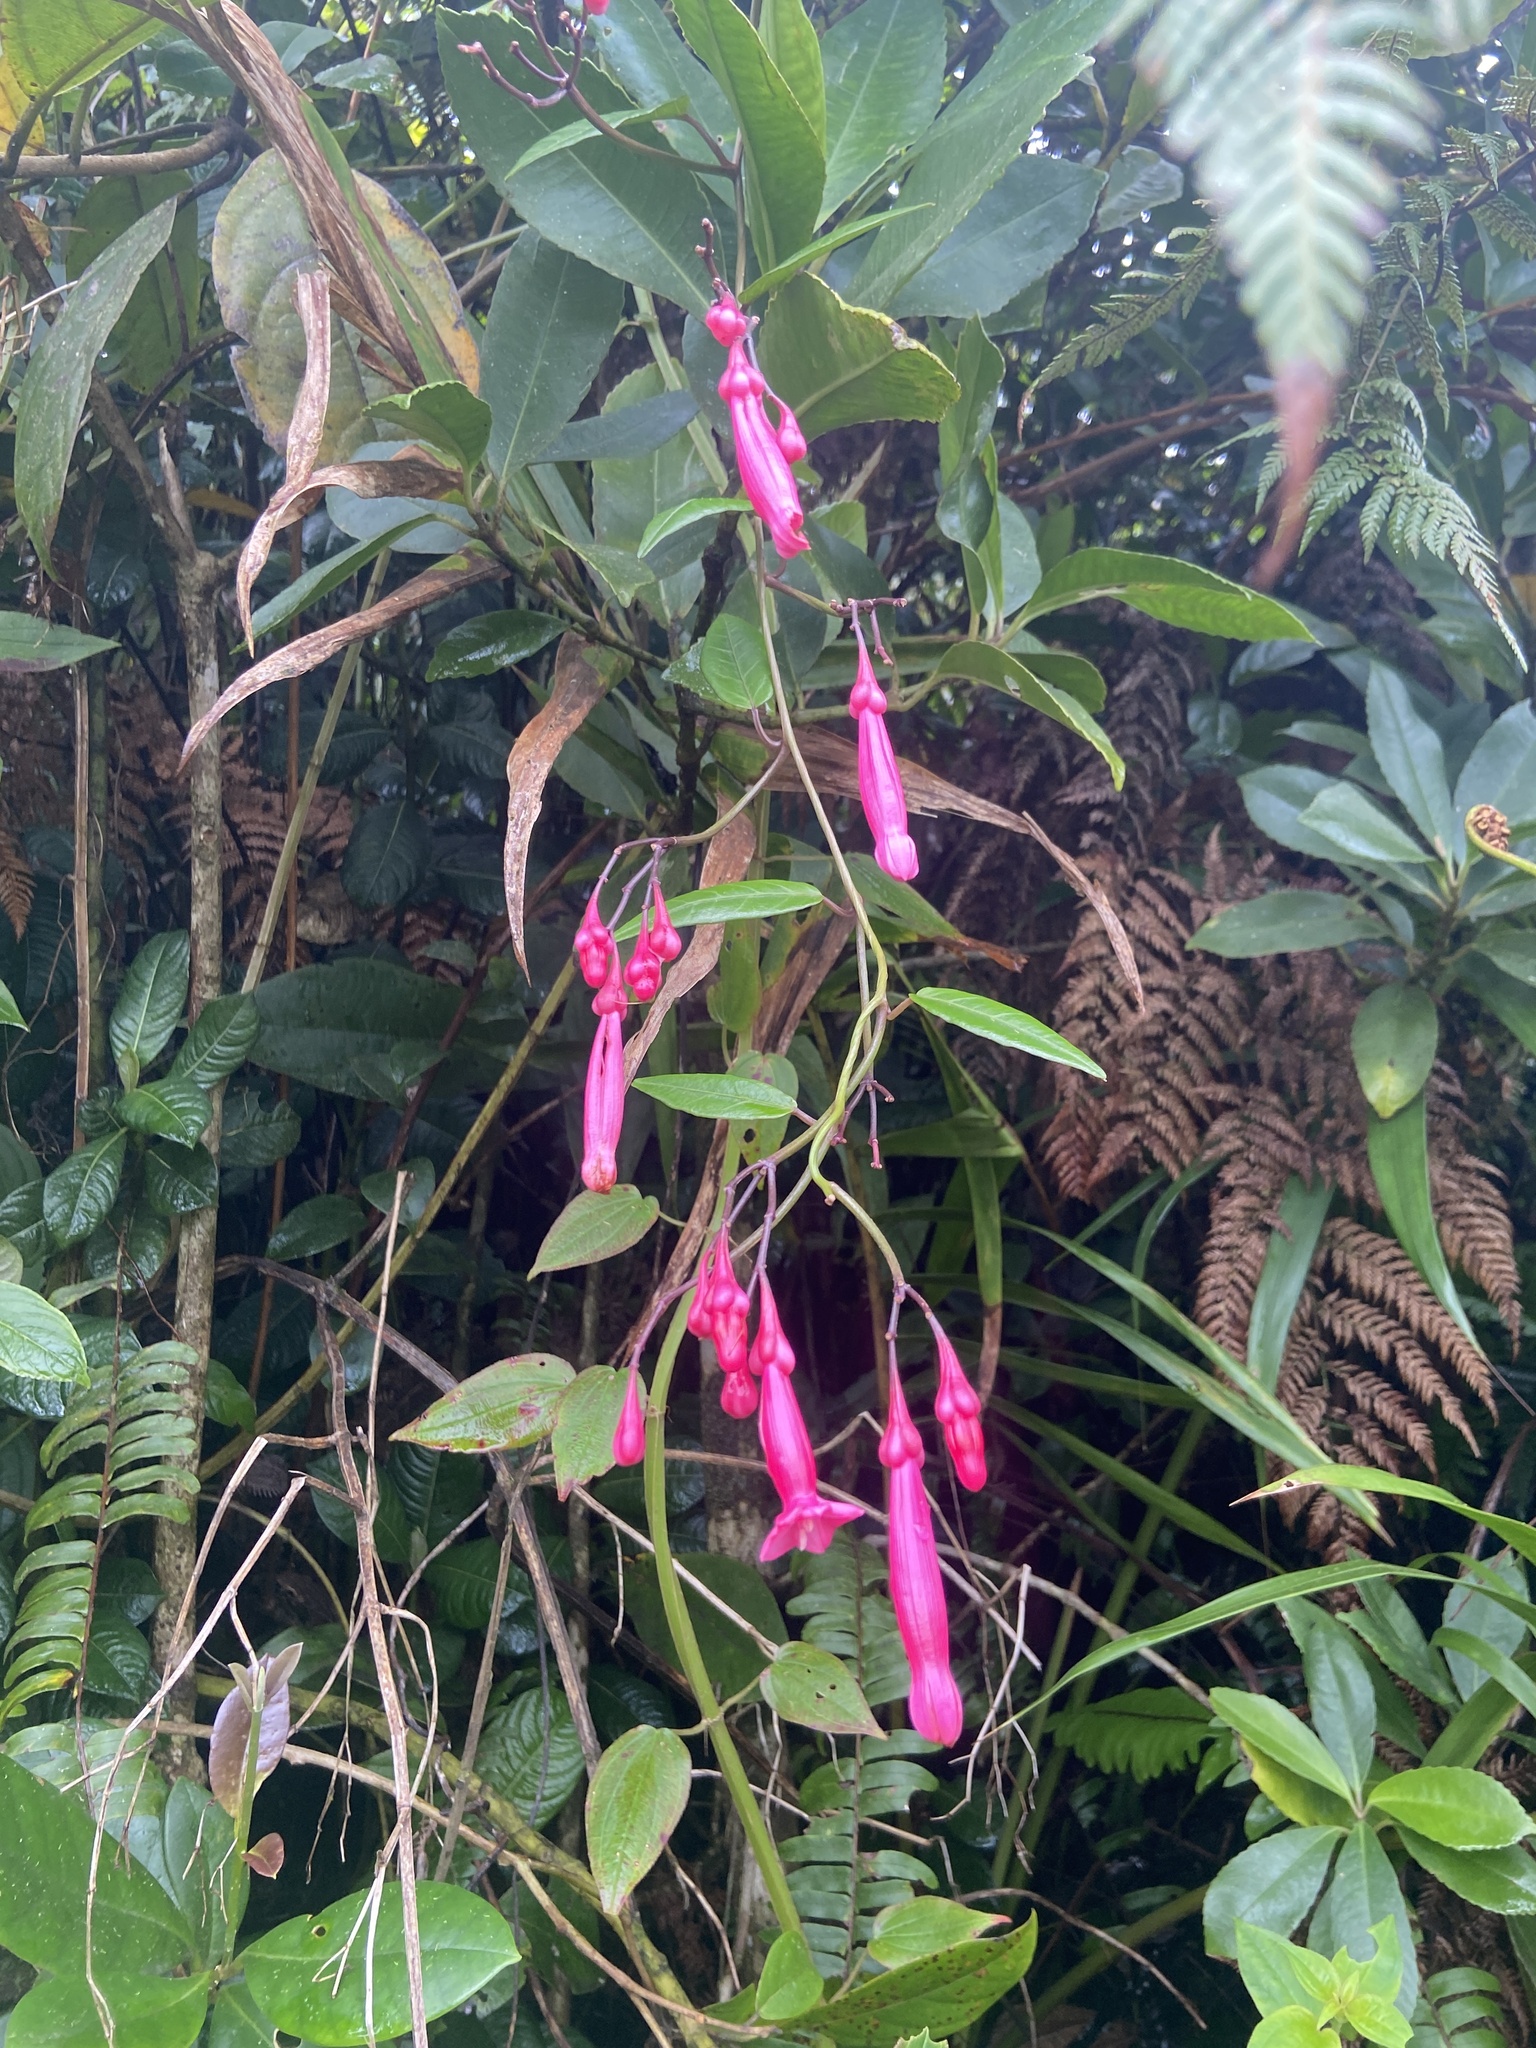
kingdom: Plantae
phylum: Tracheophyta
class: Magnoliopsida
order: Solanales
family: Convolvulaceae
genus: Ipomoea
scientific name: Ipomoea repanda
